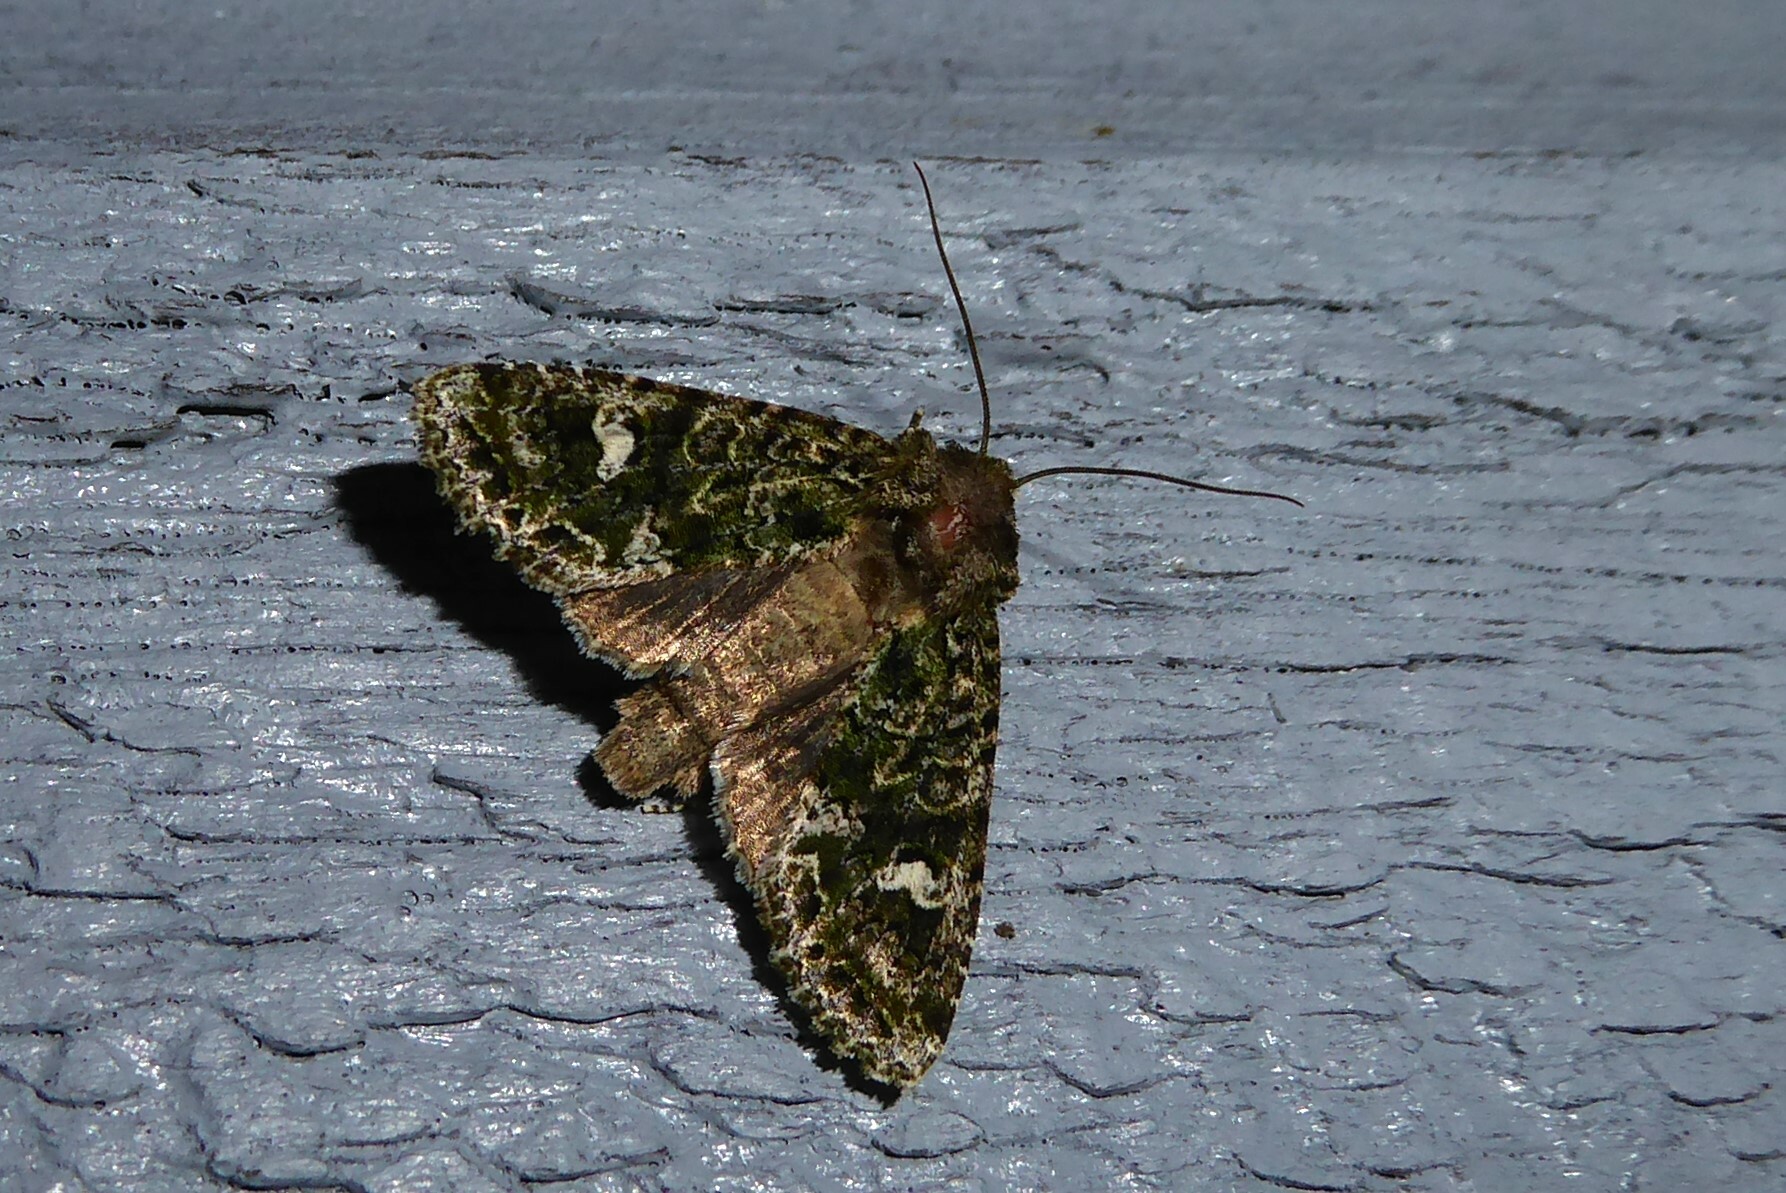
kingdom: Animalia
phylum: Arthropoda
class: Insecta
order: Lepidoptera
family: Noctuidae
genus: Ichneutica
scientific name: Ichneutica
